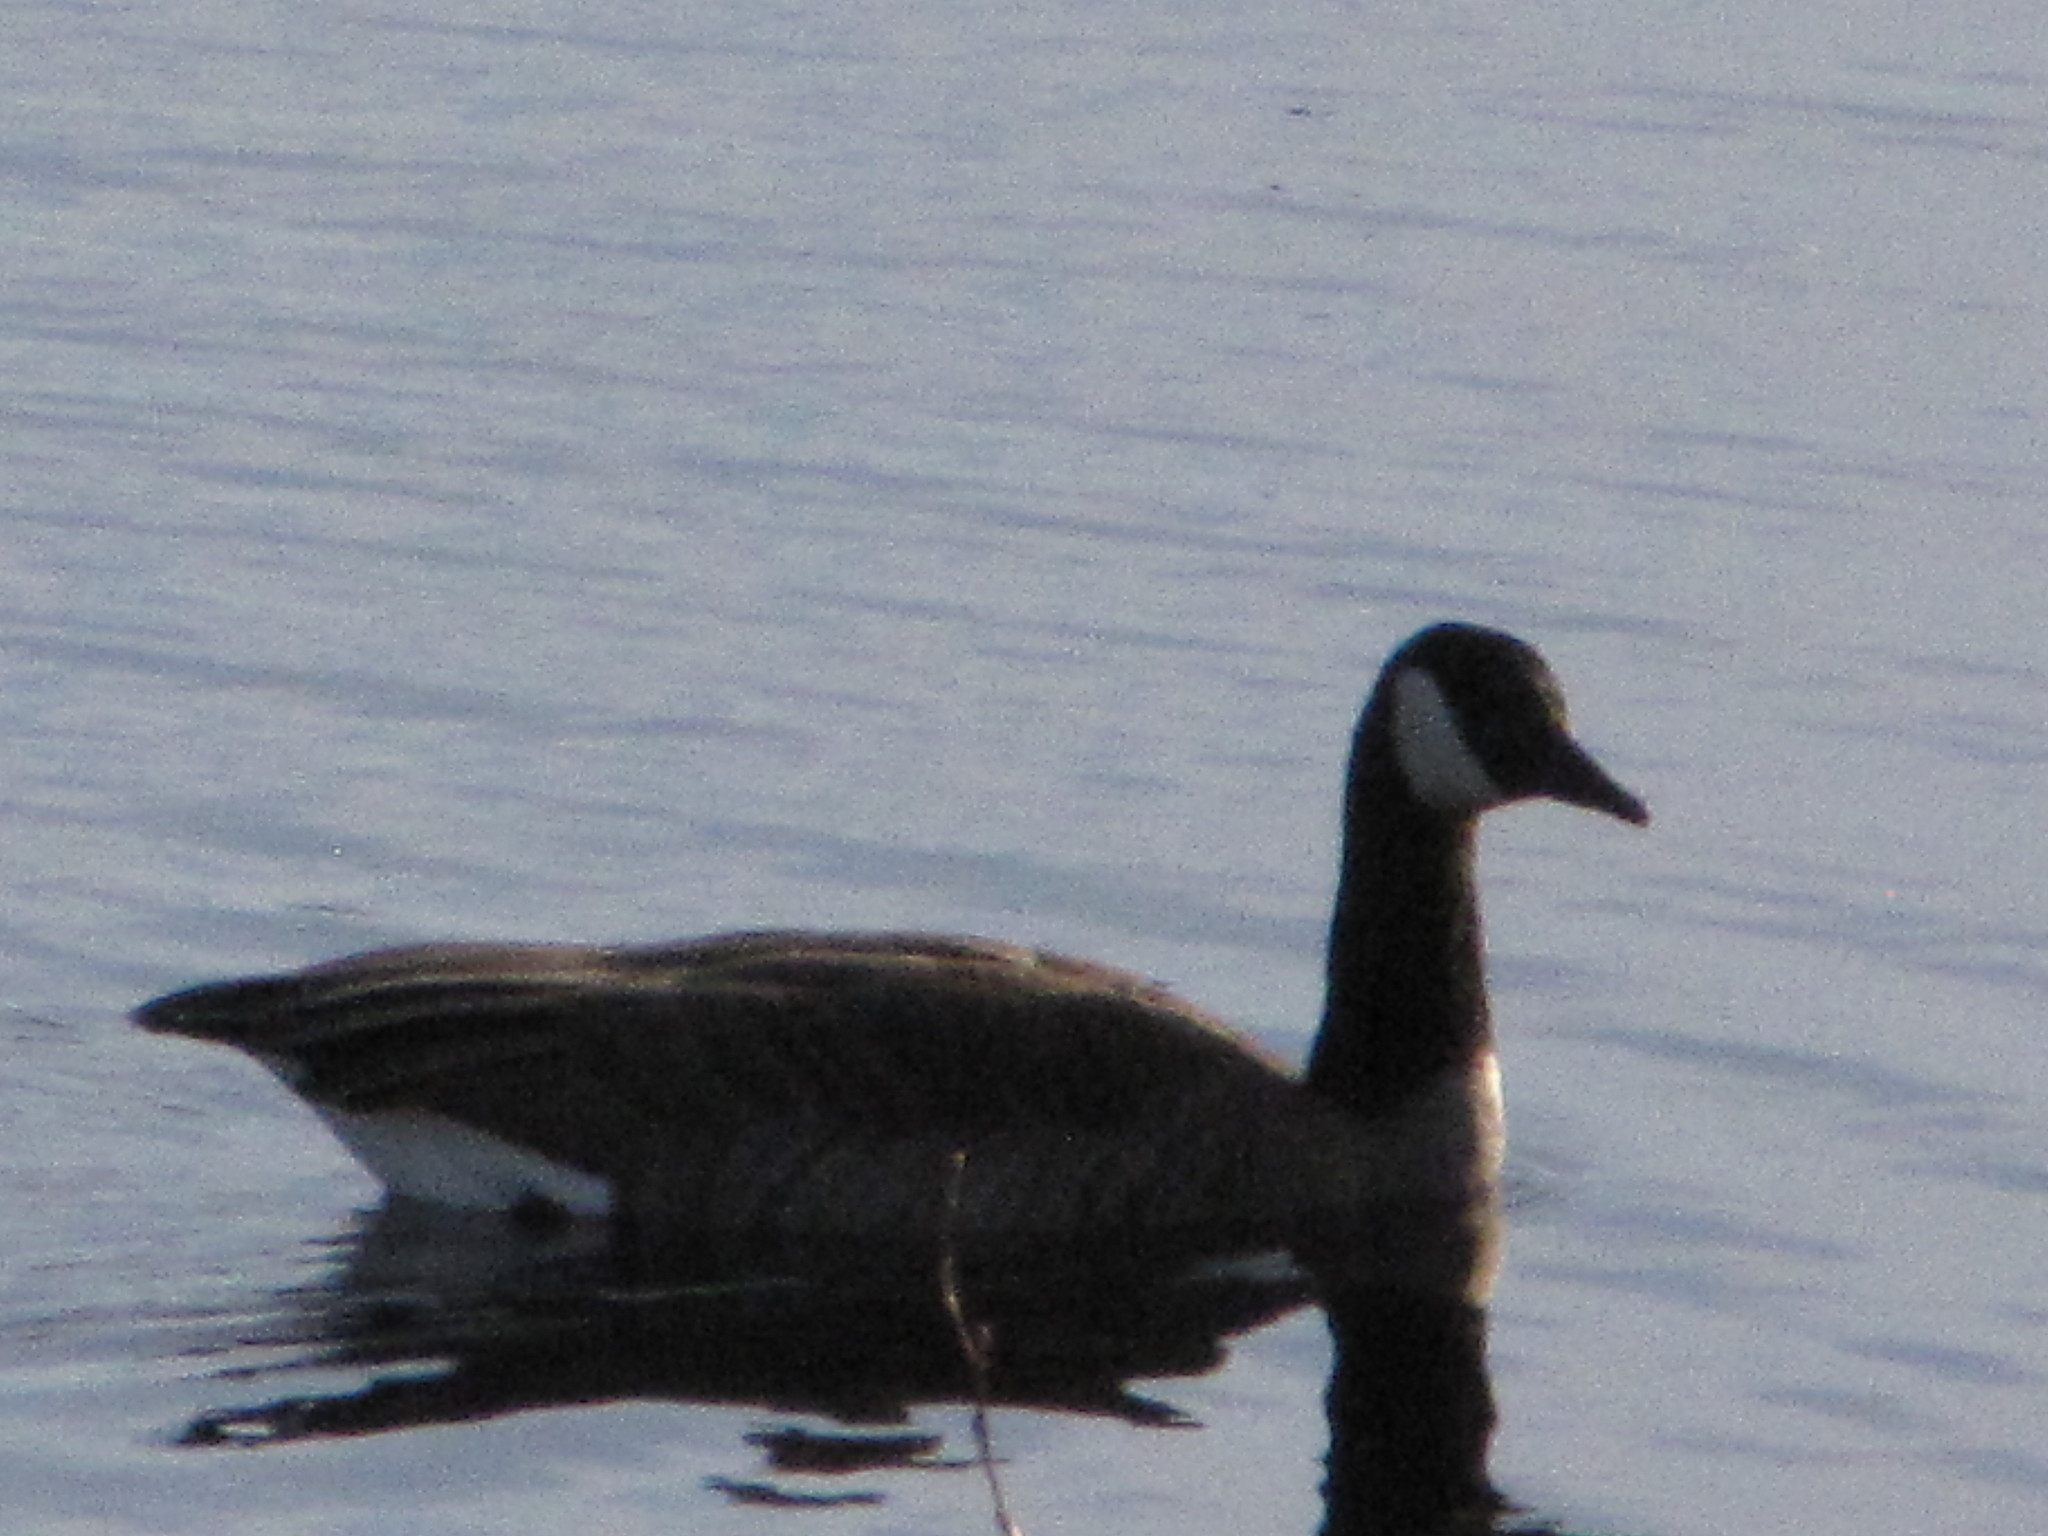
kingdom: Animalia
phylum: Chordata
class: Aves
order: Anseriformes
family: Anatidae
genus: Branta
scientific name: Branta canadensis
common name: Canada goose
